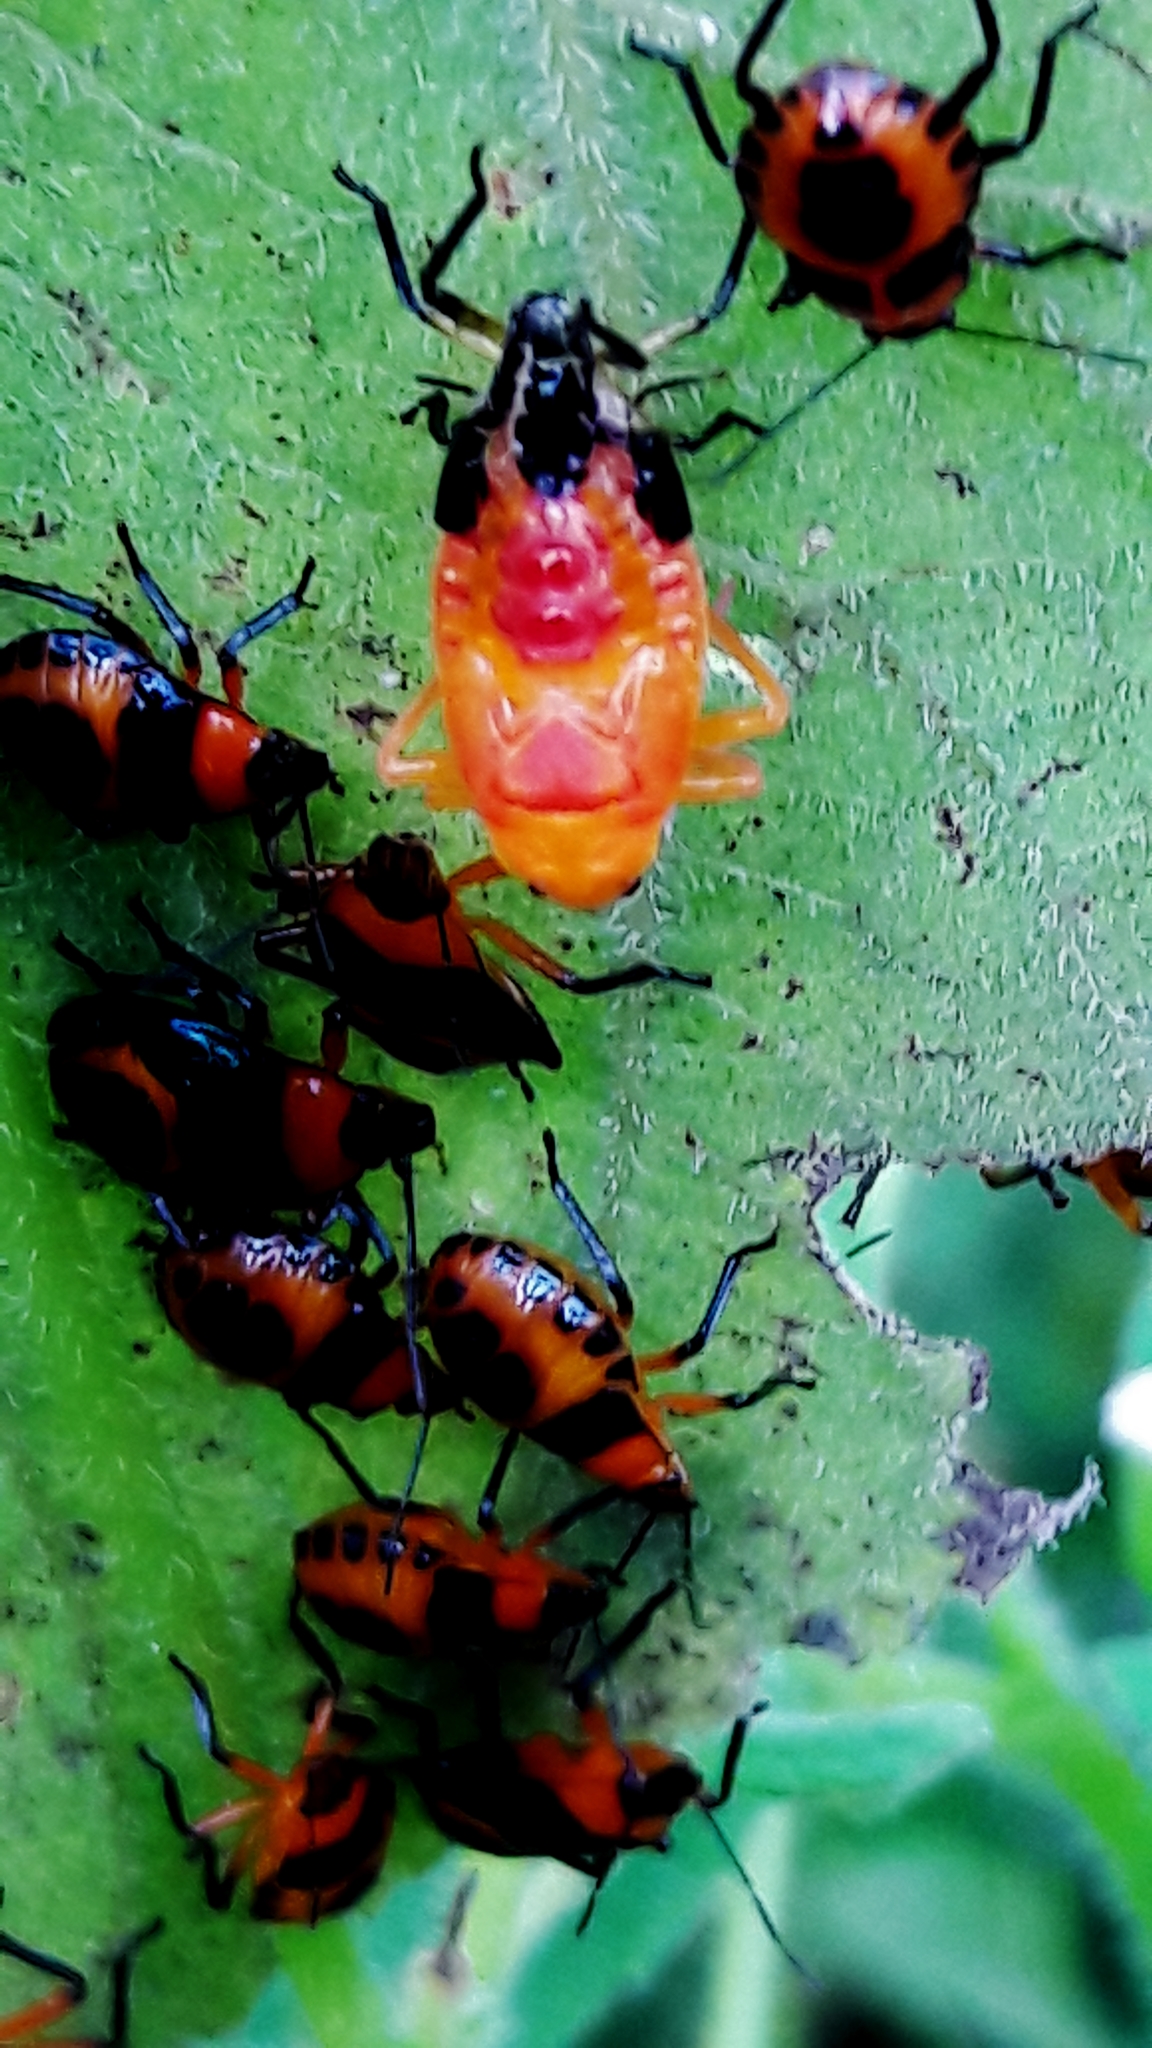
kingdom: Animalia
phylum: Arthropoda
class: Insecta
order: Hemiptera
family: Pentatomidae
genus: Tynacantha
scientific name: Tynacantha marginata
